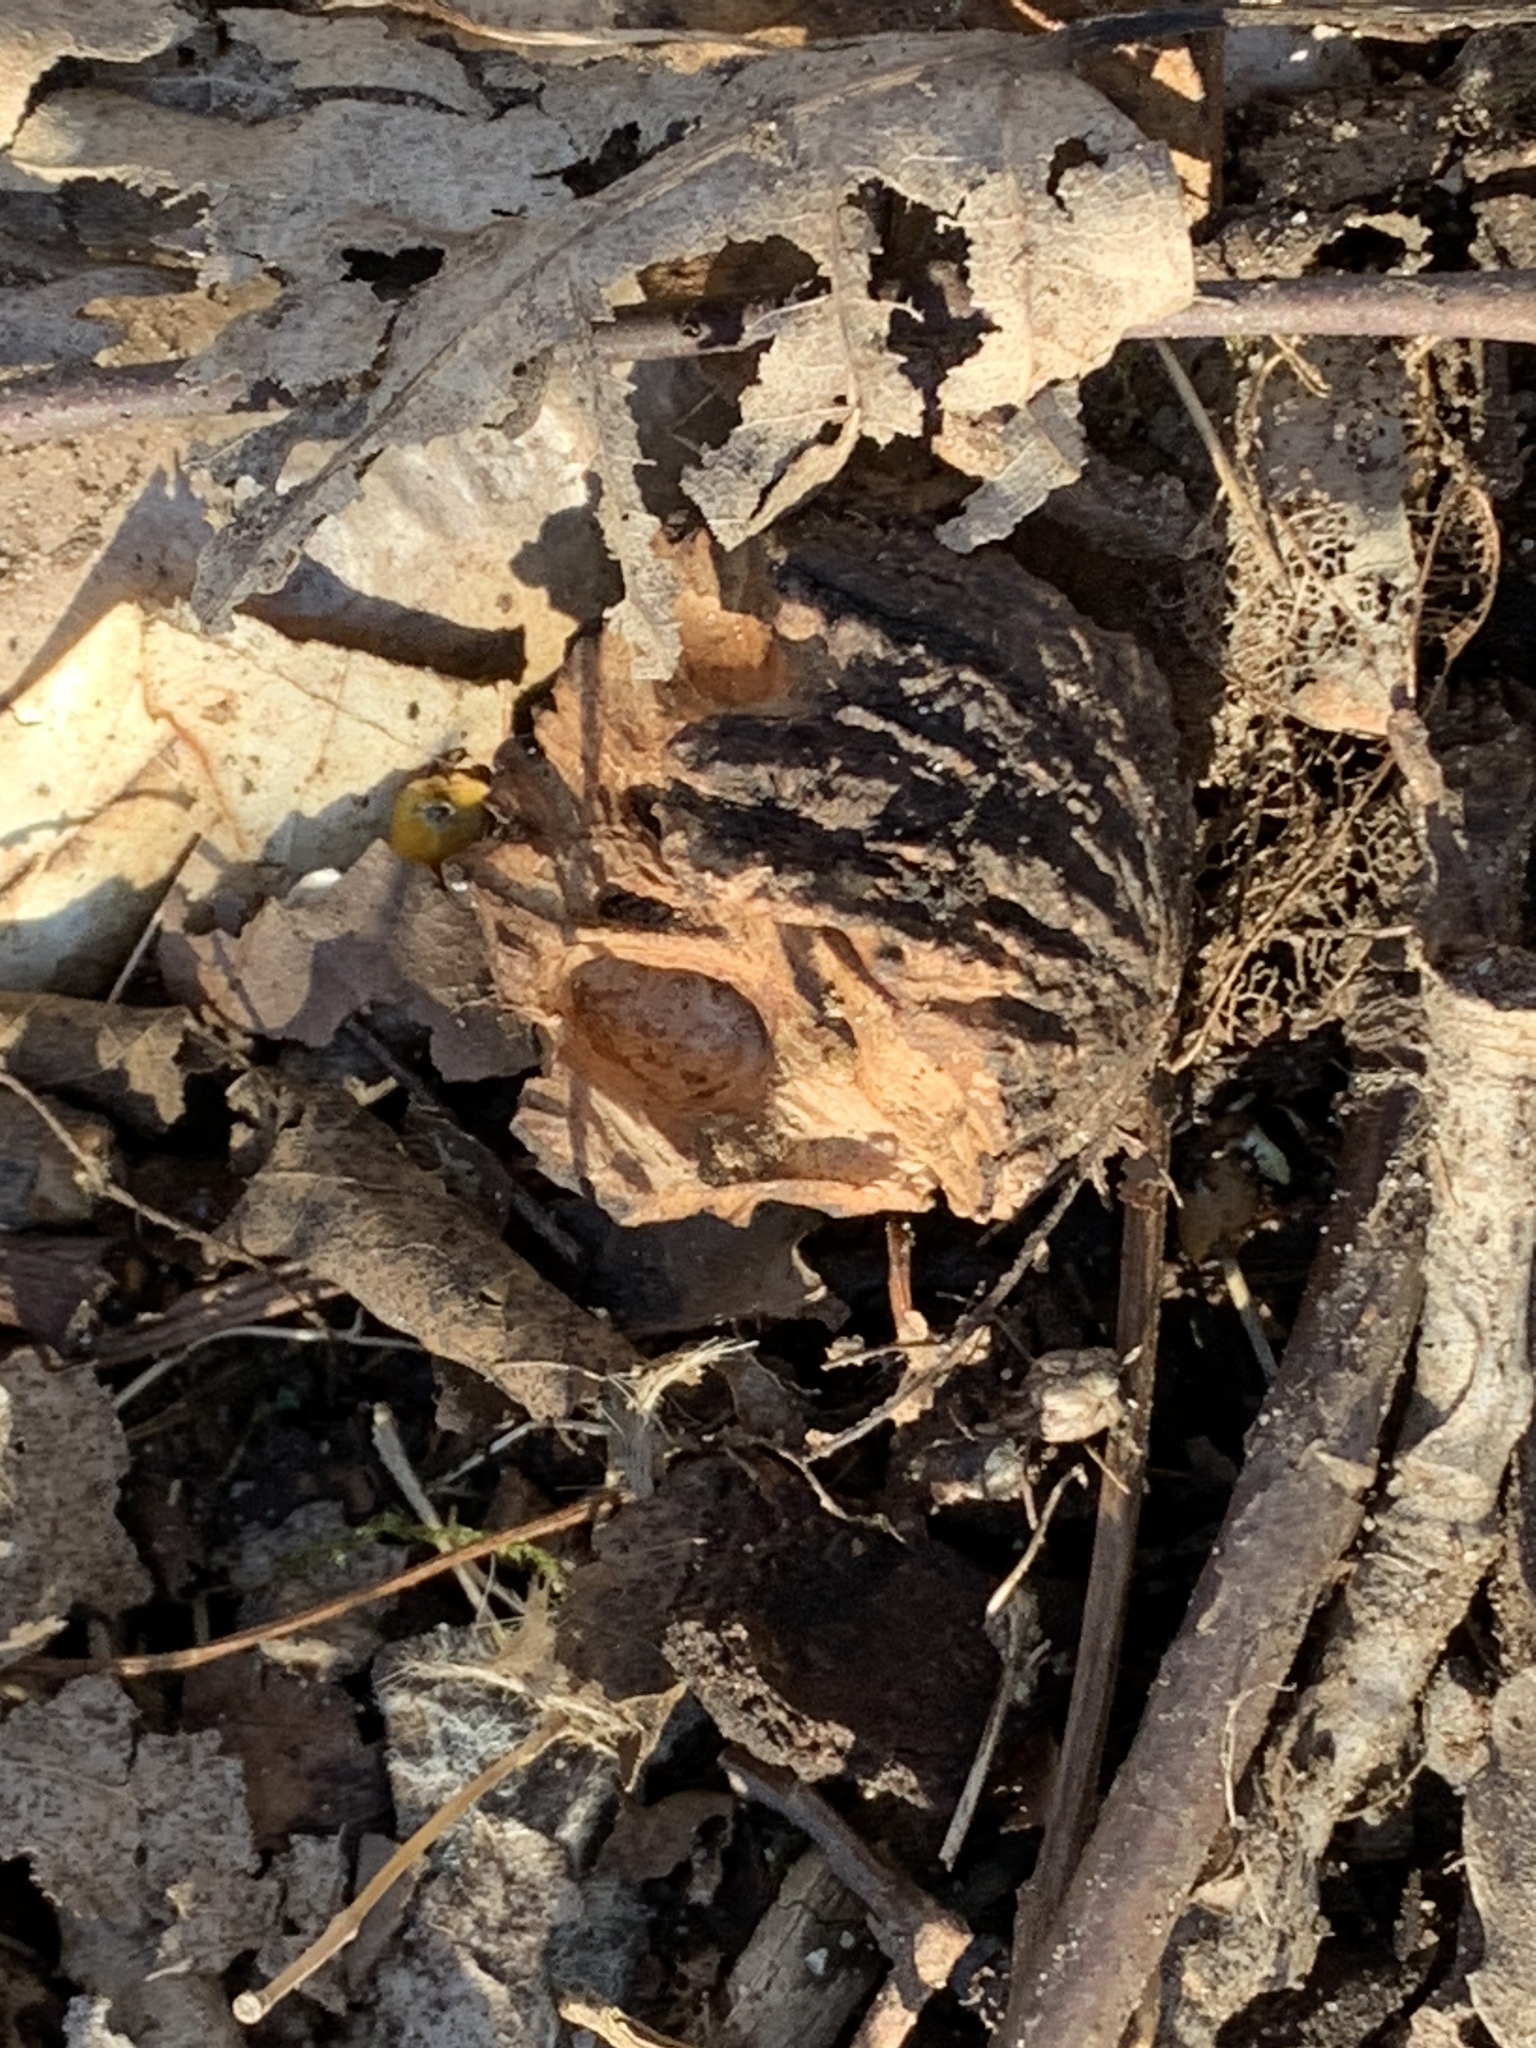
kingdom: Plantae
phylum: Tracheophyta
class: Magnoliopsida
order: Fagales
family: Juglandaceae
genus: Juglans
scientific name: Juglans nigra
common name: Black walnut
